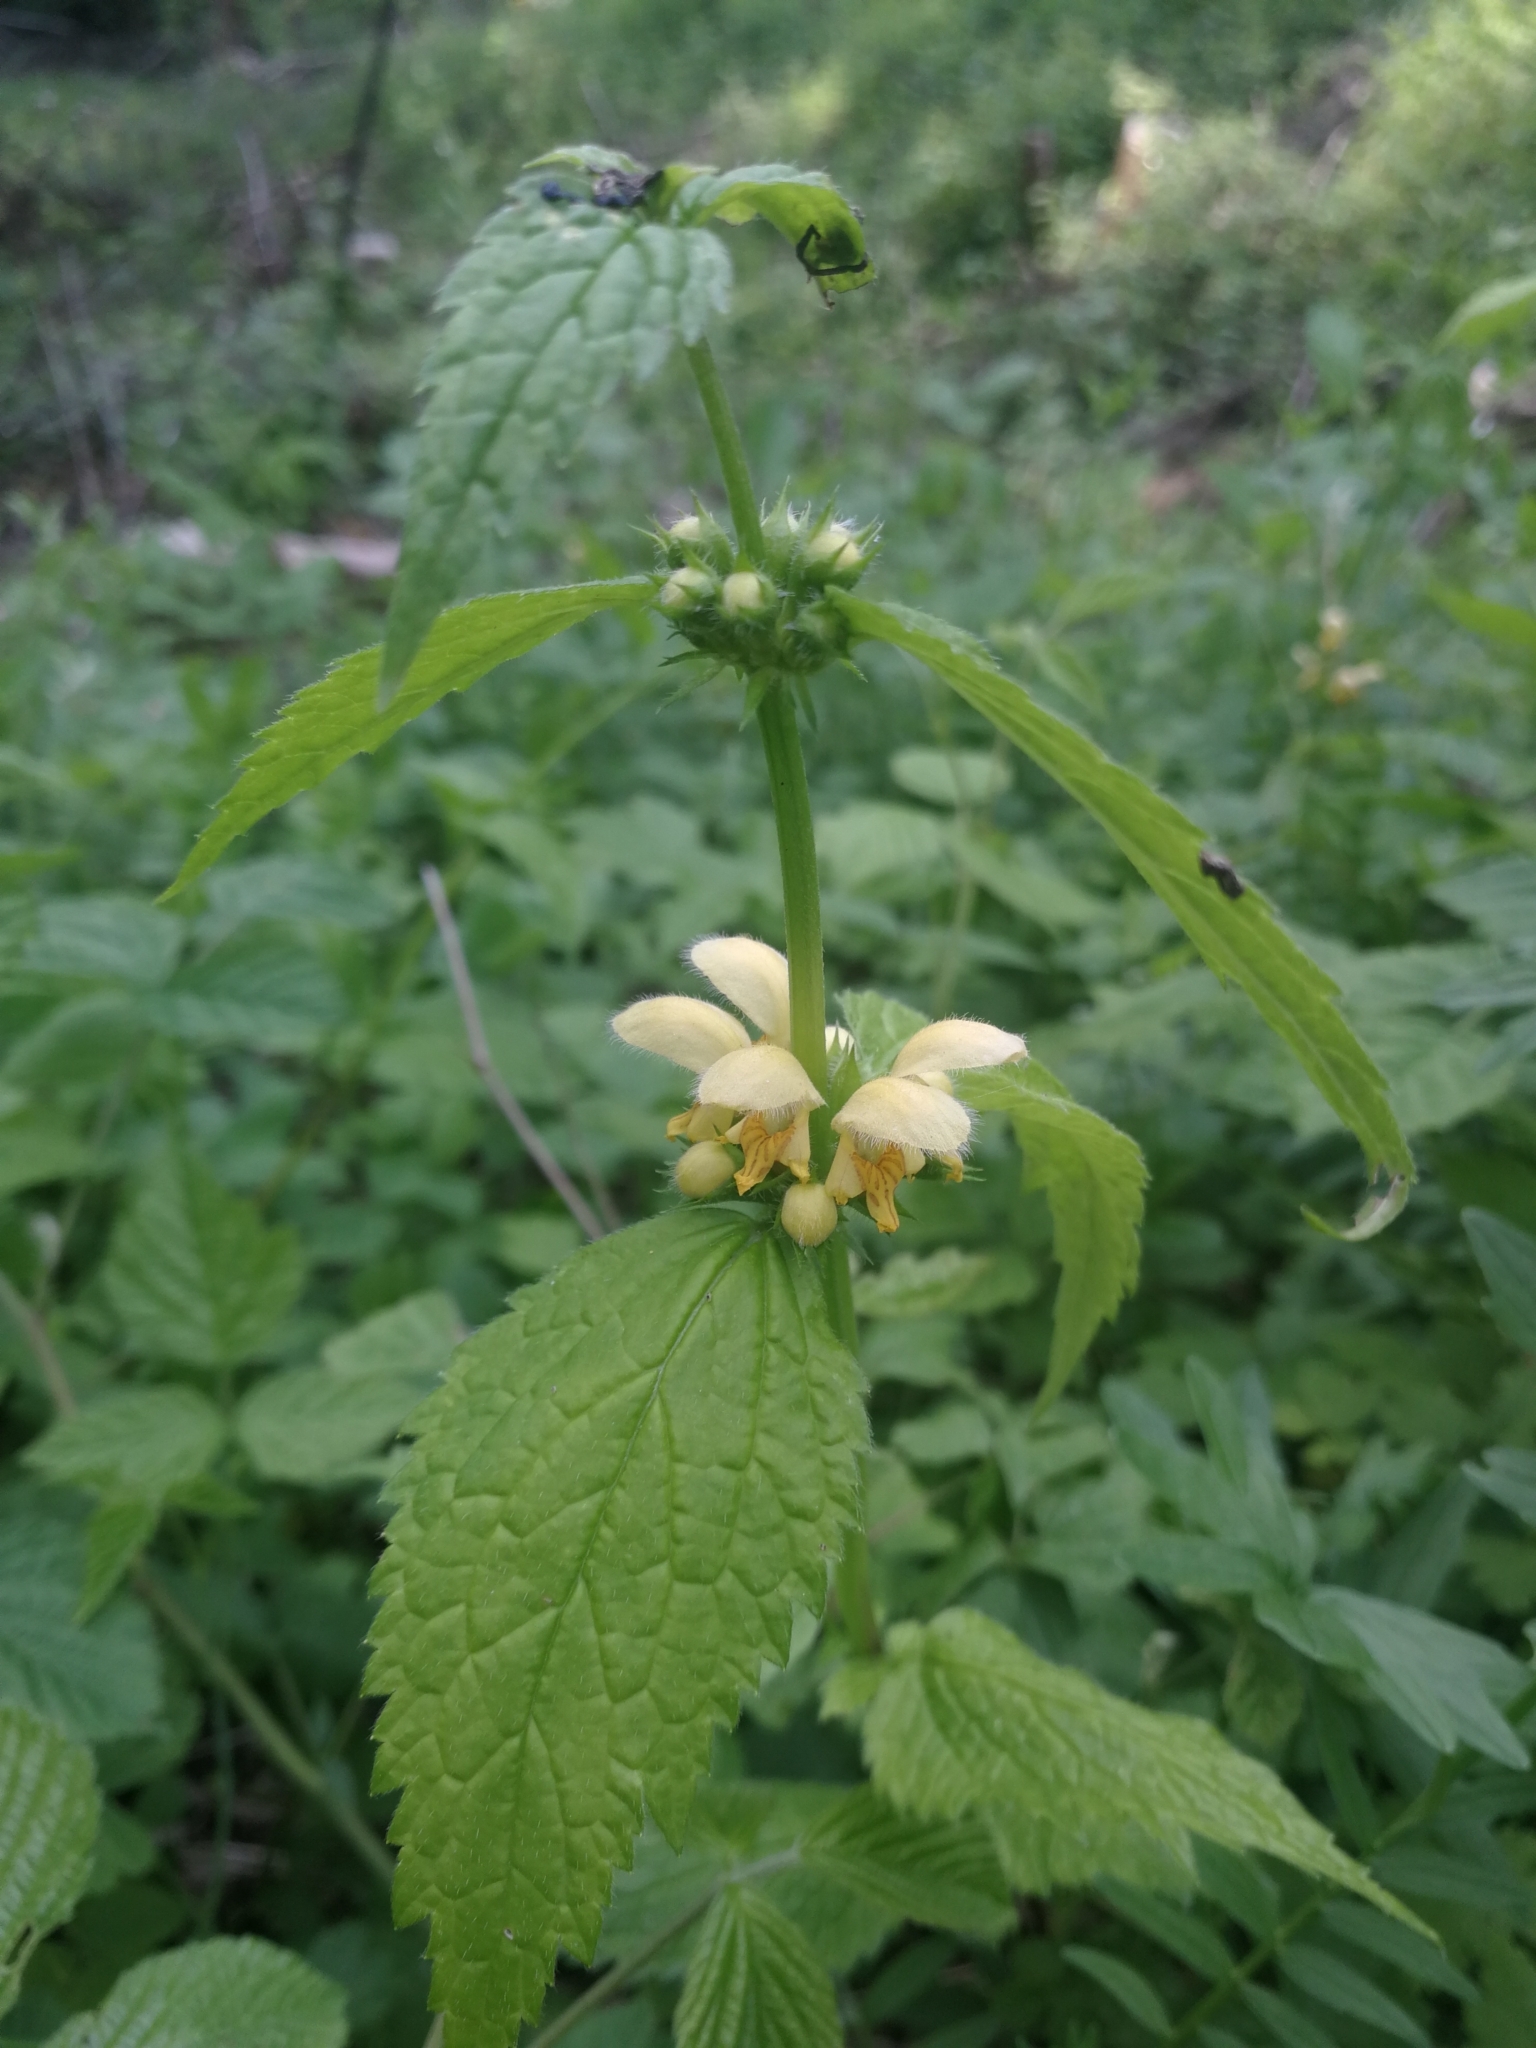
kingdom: Plantae
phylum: Tracheophyta
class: Magnoliopsida
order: Lamiales
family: Lamiaceae
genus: Lamium
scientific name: Lamium galeobdolon
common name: Yellow archangel
